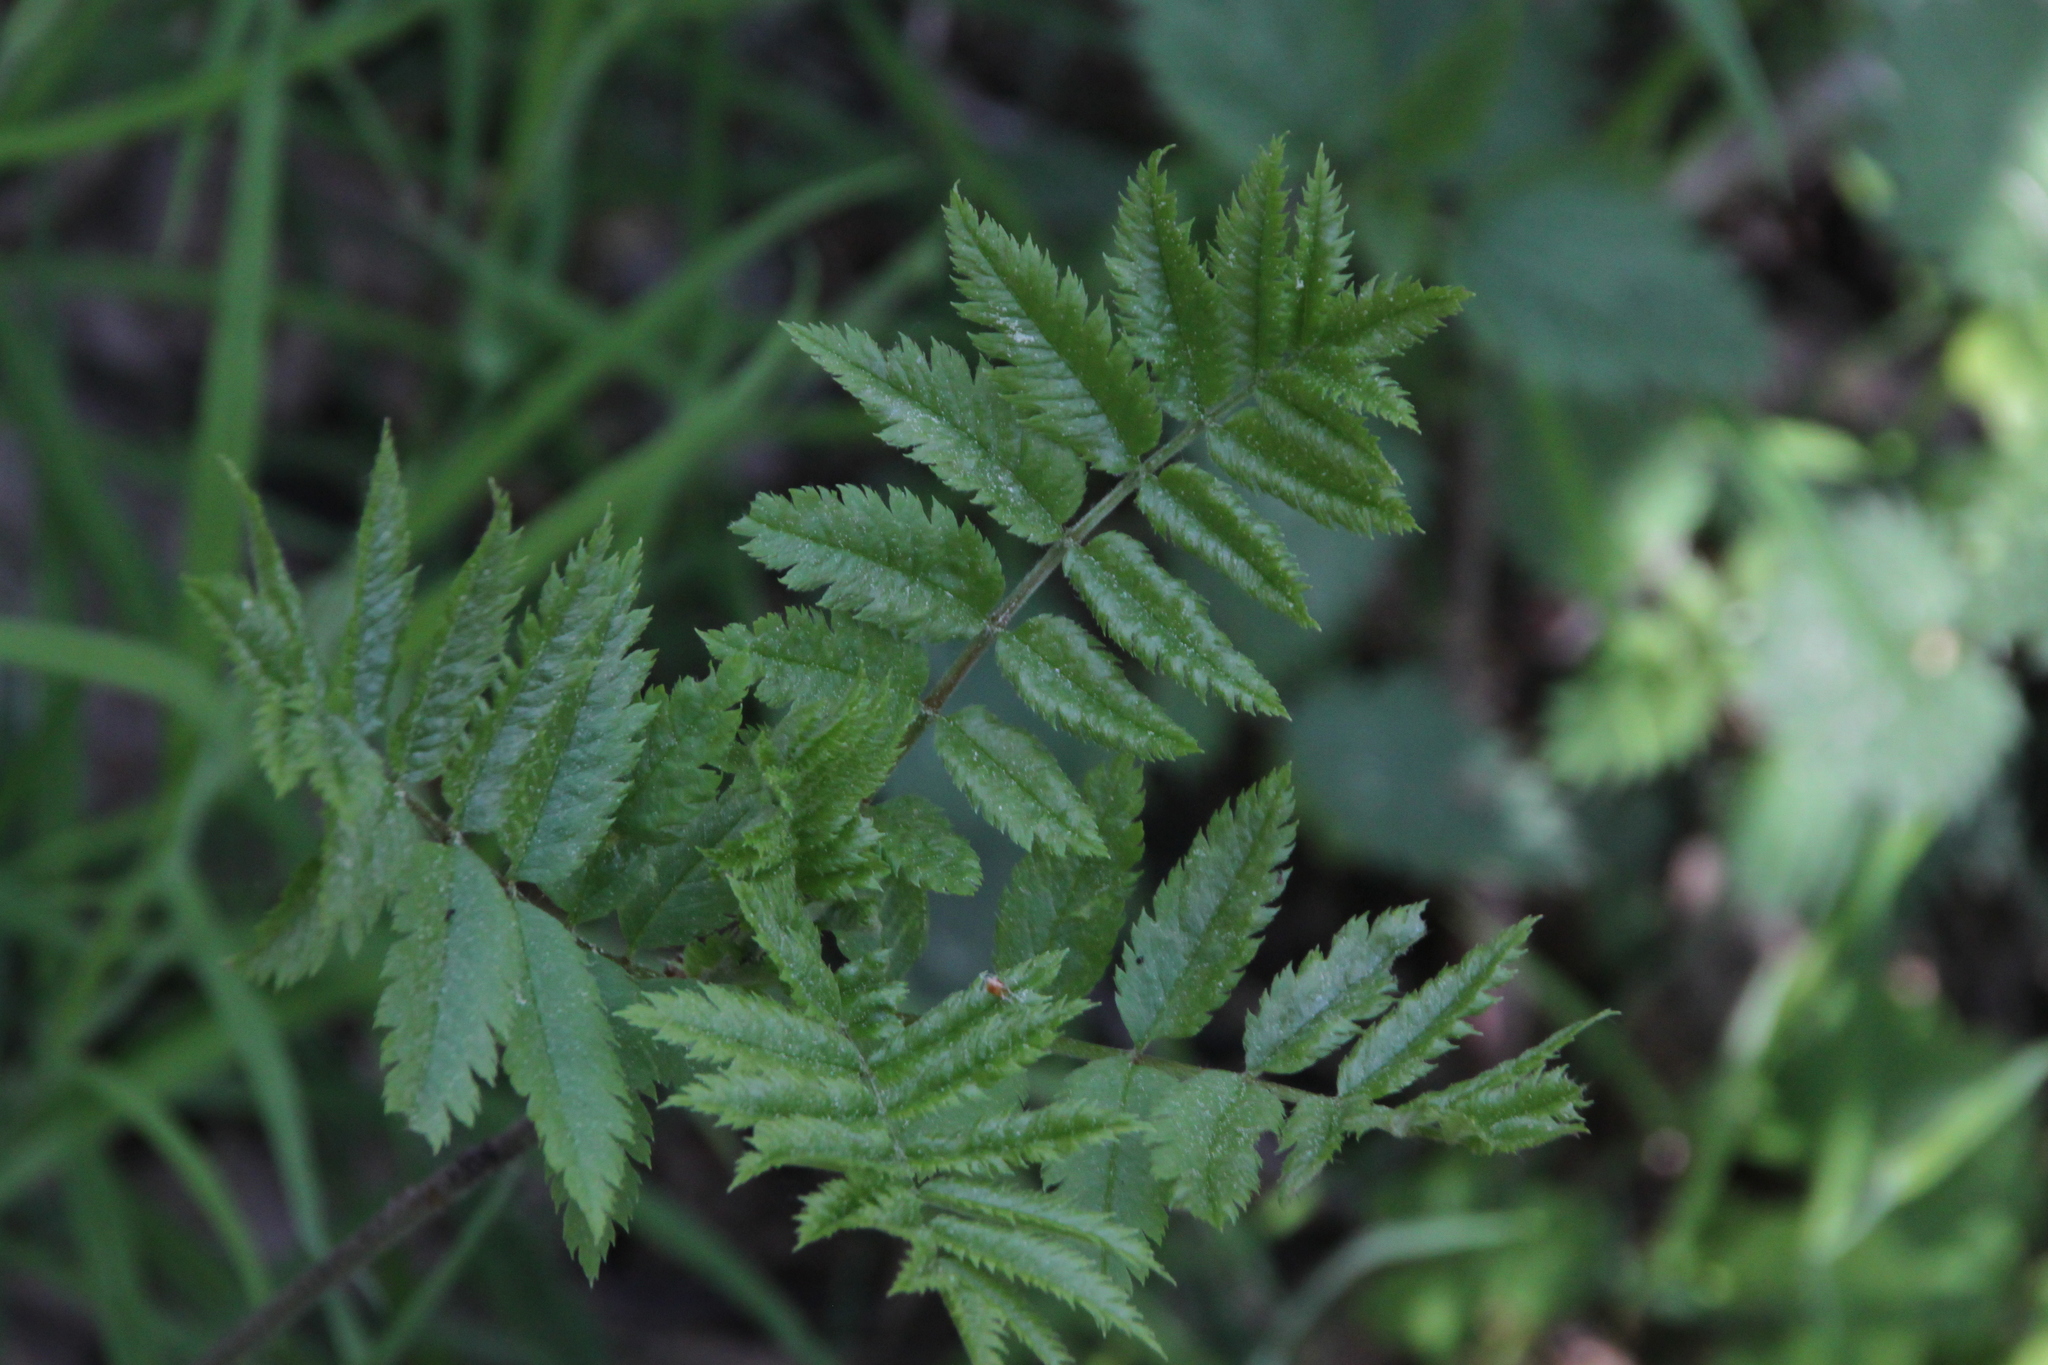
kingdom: Plantae
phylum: Tracheophyta
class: Magnoliopsida
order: Rosales
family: Rosaceae
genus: Sorbus
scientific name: Sorbus aucuparia
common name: Rowan
